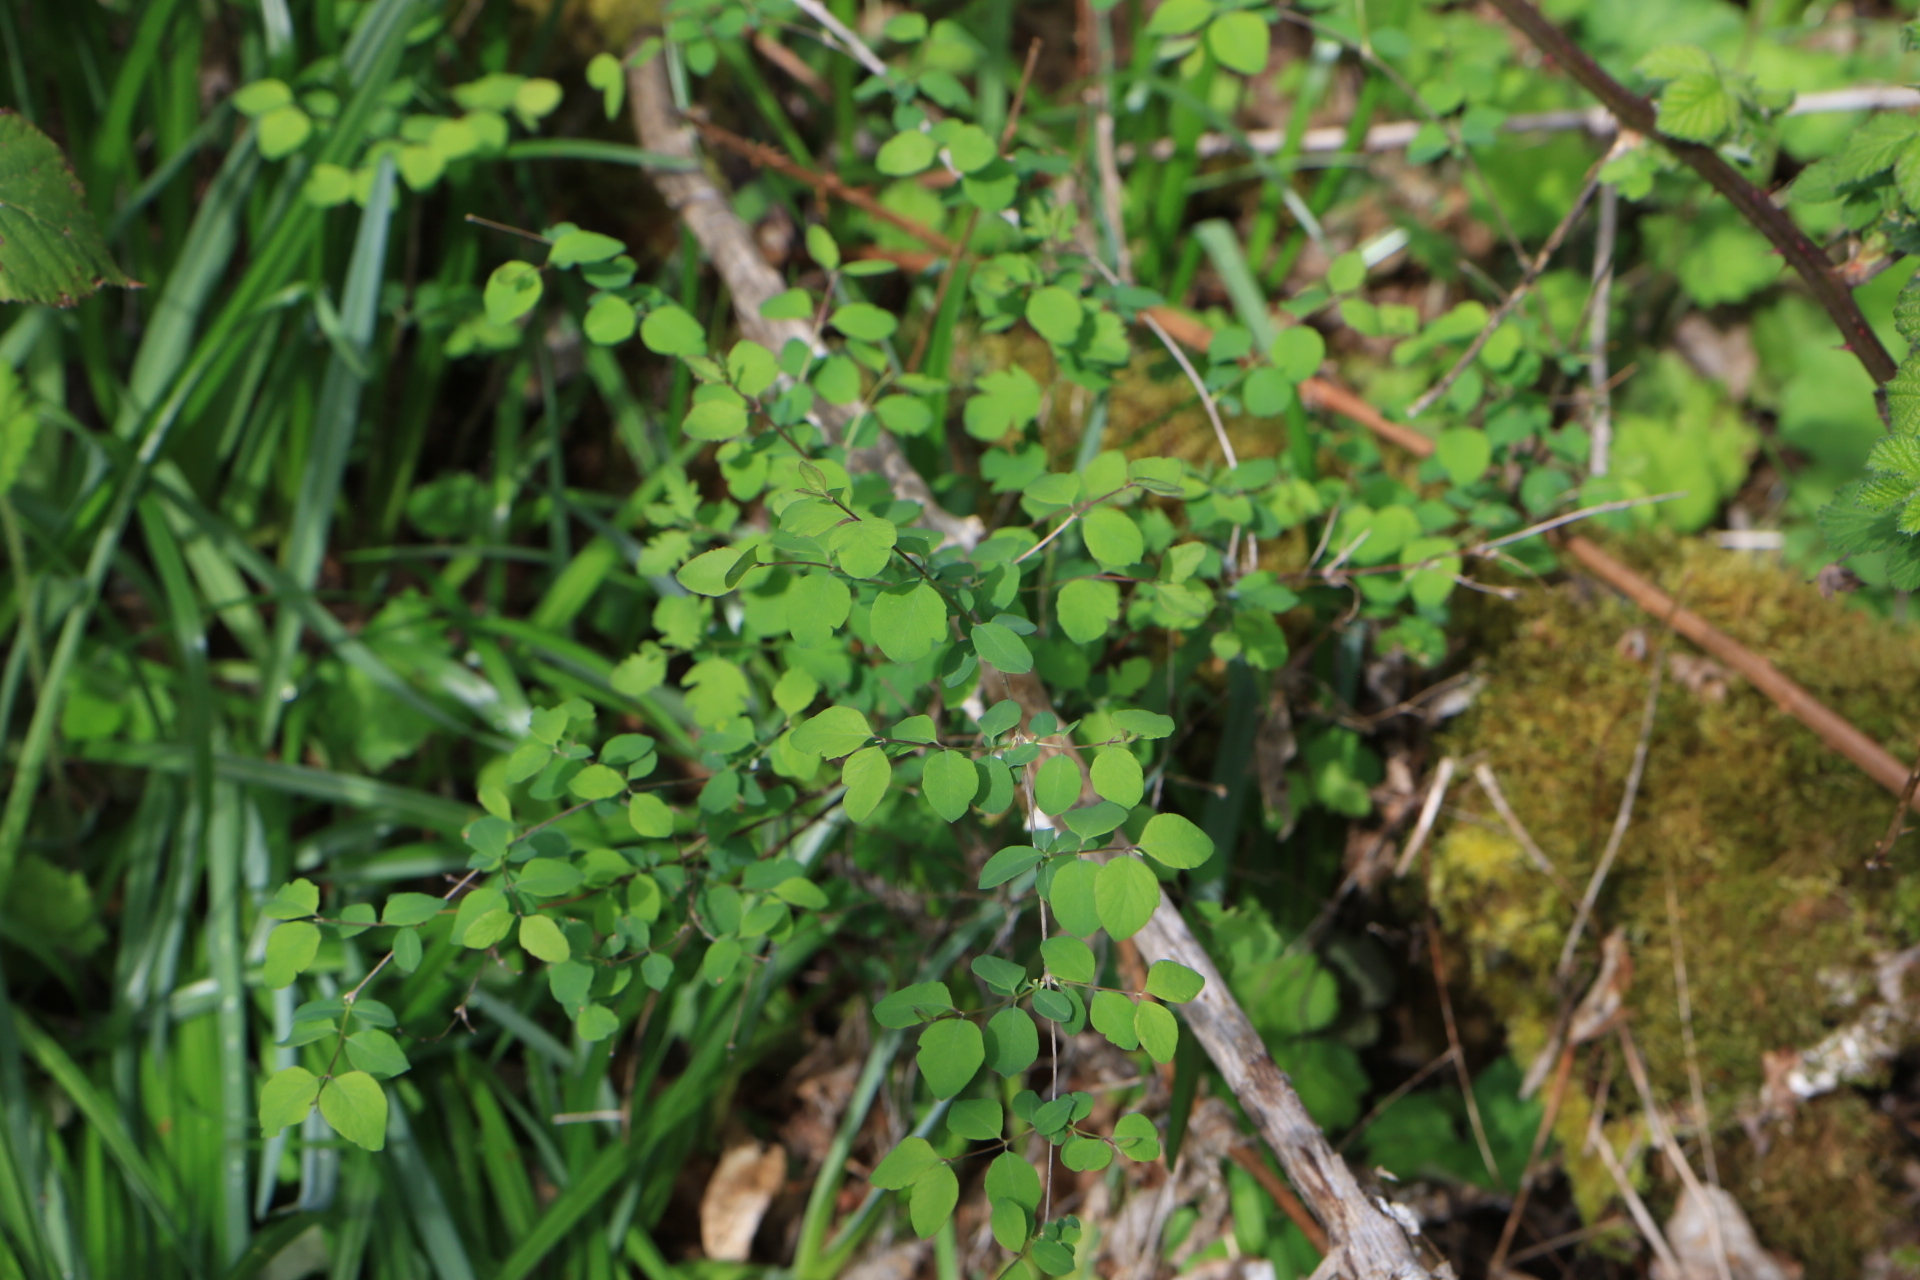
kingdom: Plantae
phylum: Tracheophyta
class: Magnoliopsida
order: Dipsacales
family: Caprifoliaceae
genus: Symphoricarpos
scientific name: Symphoricarpos albus
